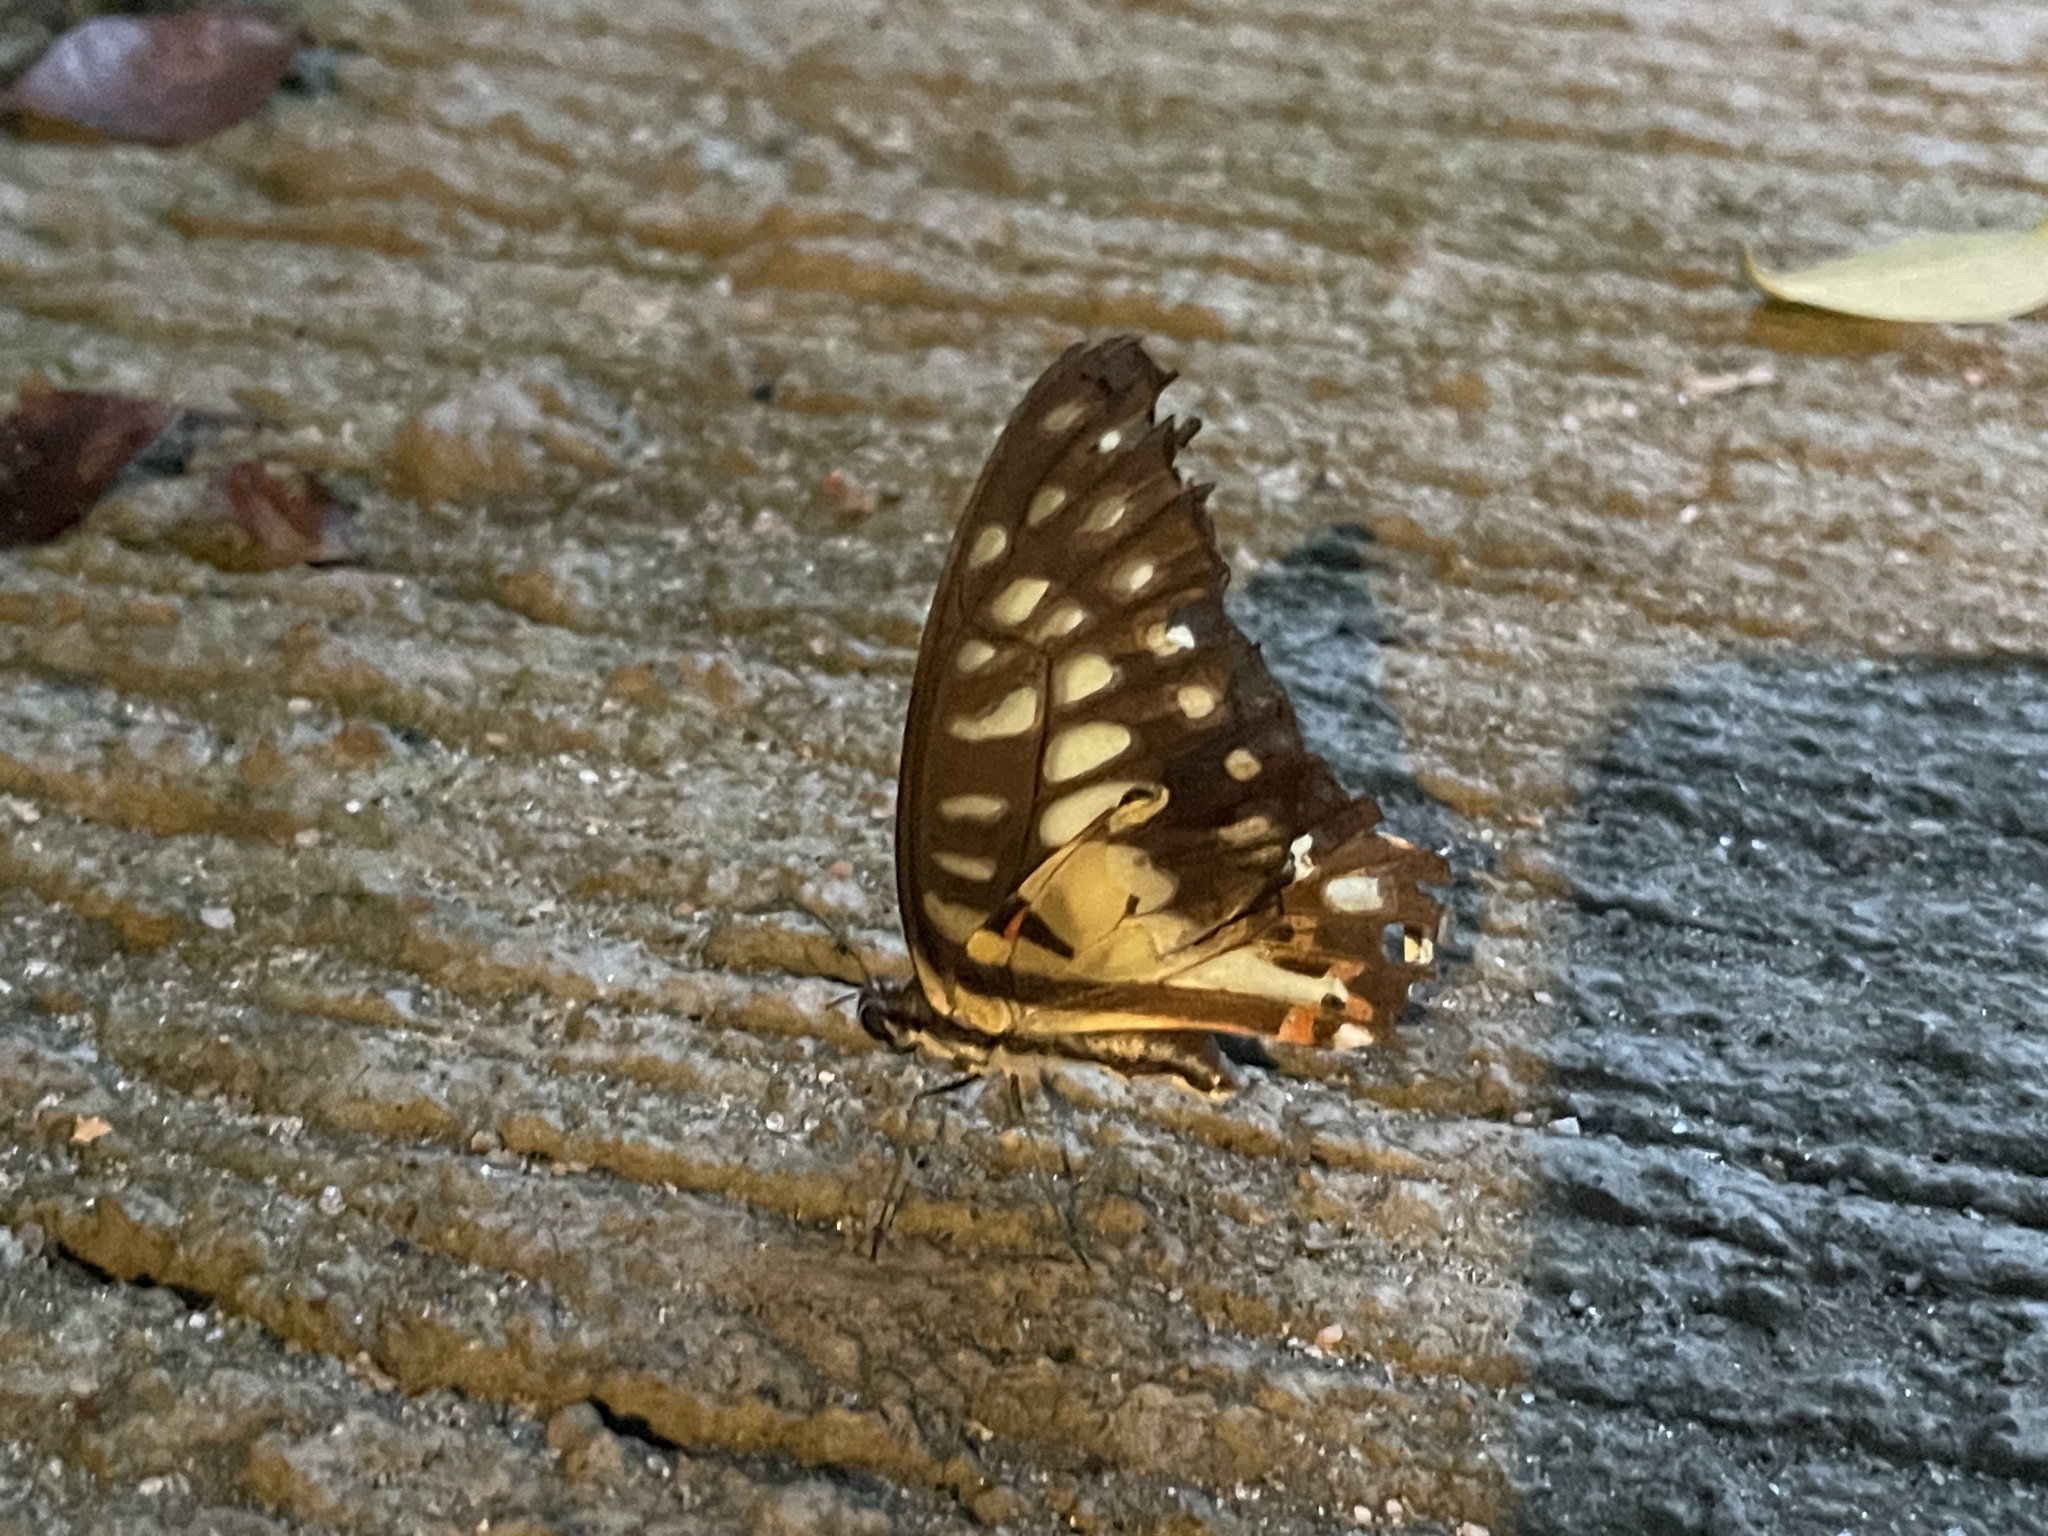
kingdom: Animalia
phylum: Arthropoda
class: Insecta
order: Lepidoptera
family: Papilionidae
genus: Graphium
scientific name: Graphium doson
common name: Common jay
